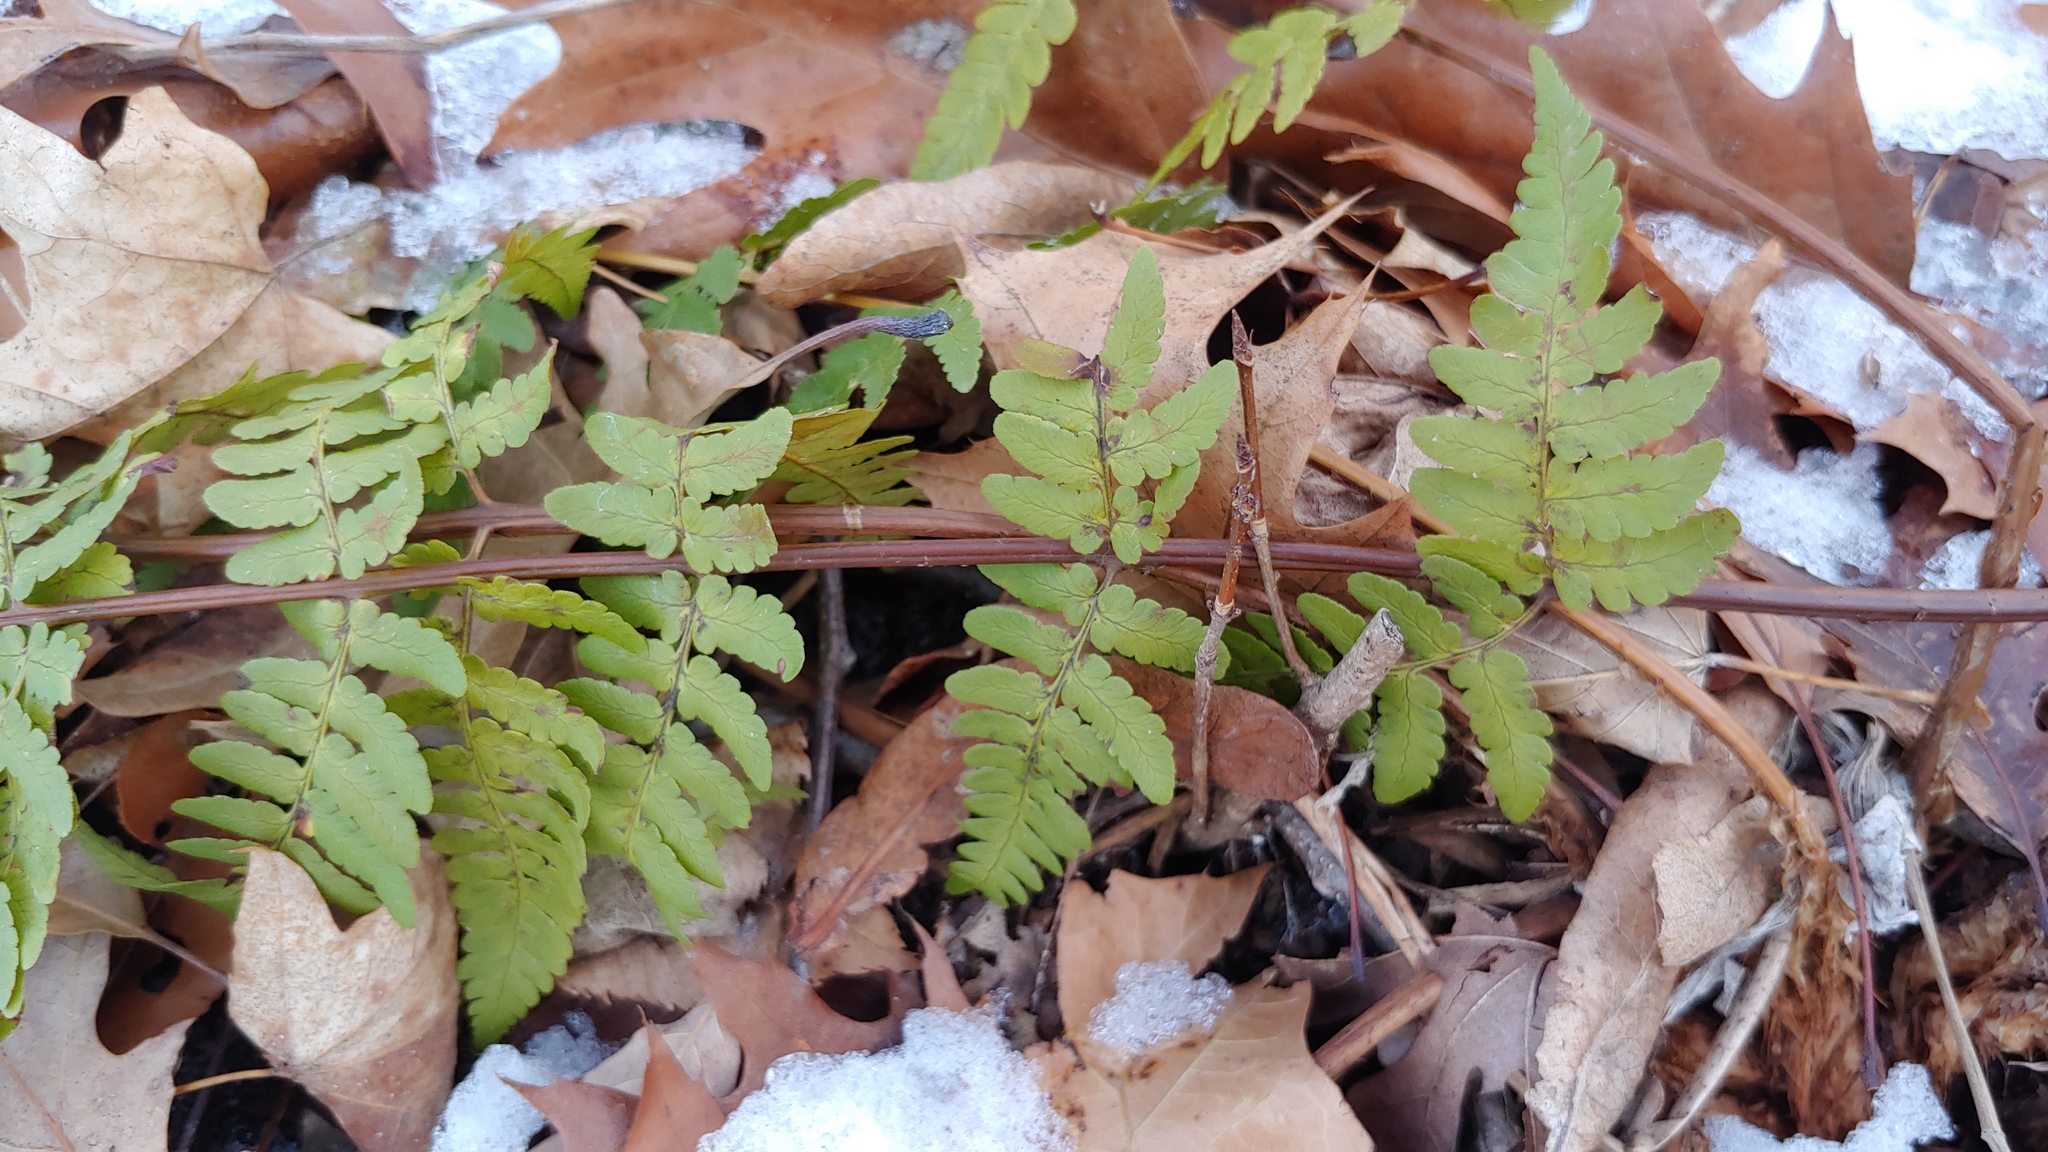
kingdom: Plantae
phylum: Tracheophyta
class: Polypodiopsida
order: Polypodiales
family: Dryopteridaceae
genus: Dryopteris
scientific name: Dryopteris marginalis
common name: Marginal wood fern
